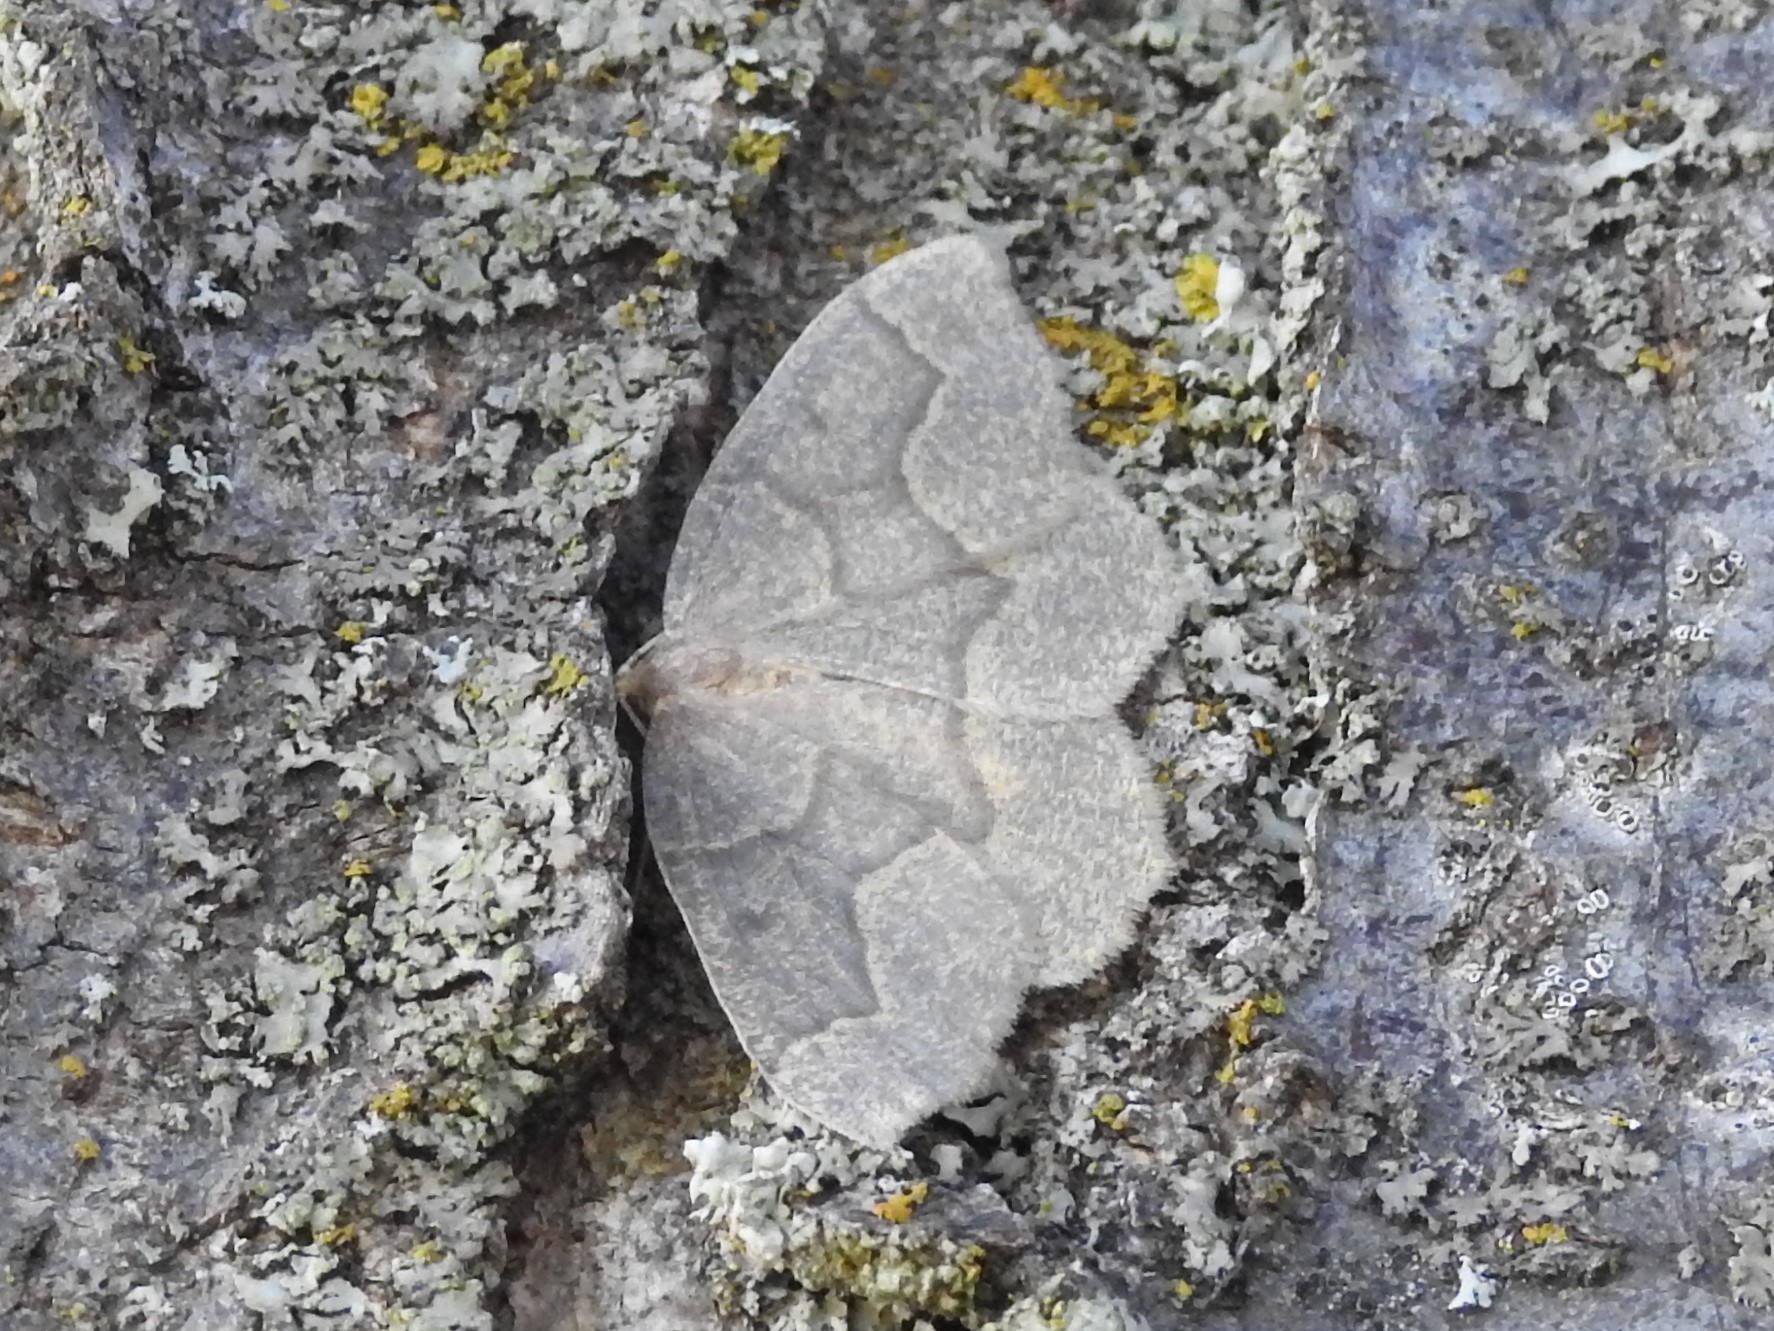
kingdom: Animalia
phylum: Arthropoda
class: Insecta
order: Lepidoptera
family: Geometridae
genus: Lambdina
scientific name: Lambdina fiscellaria
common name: Hemlock looper
